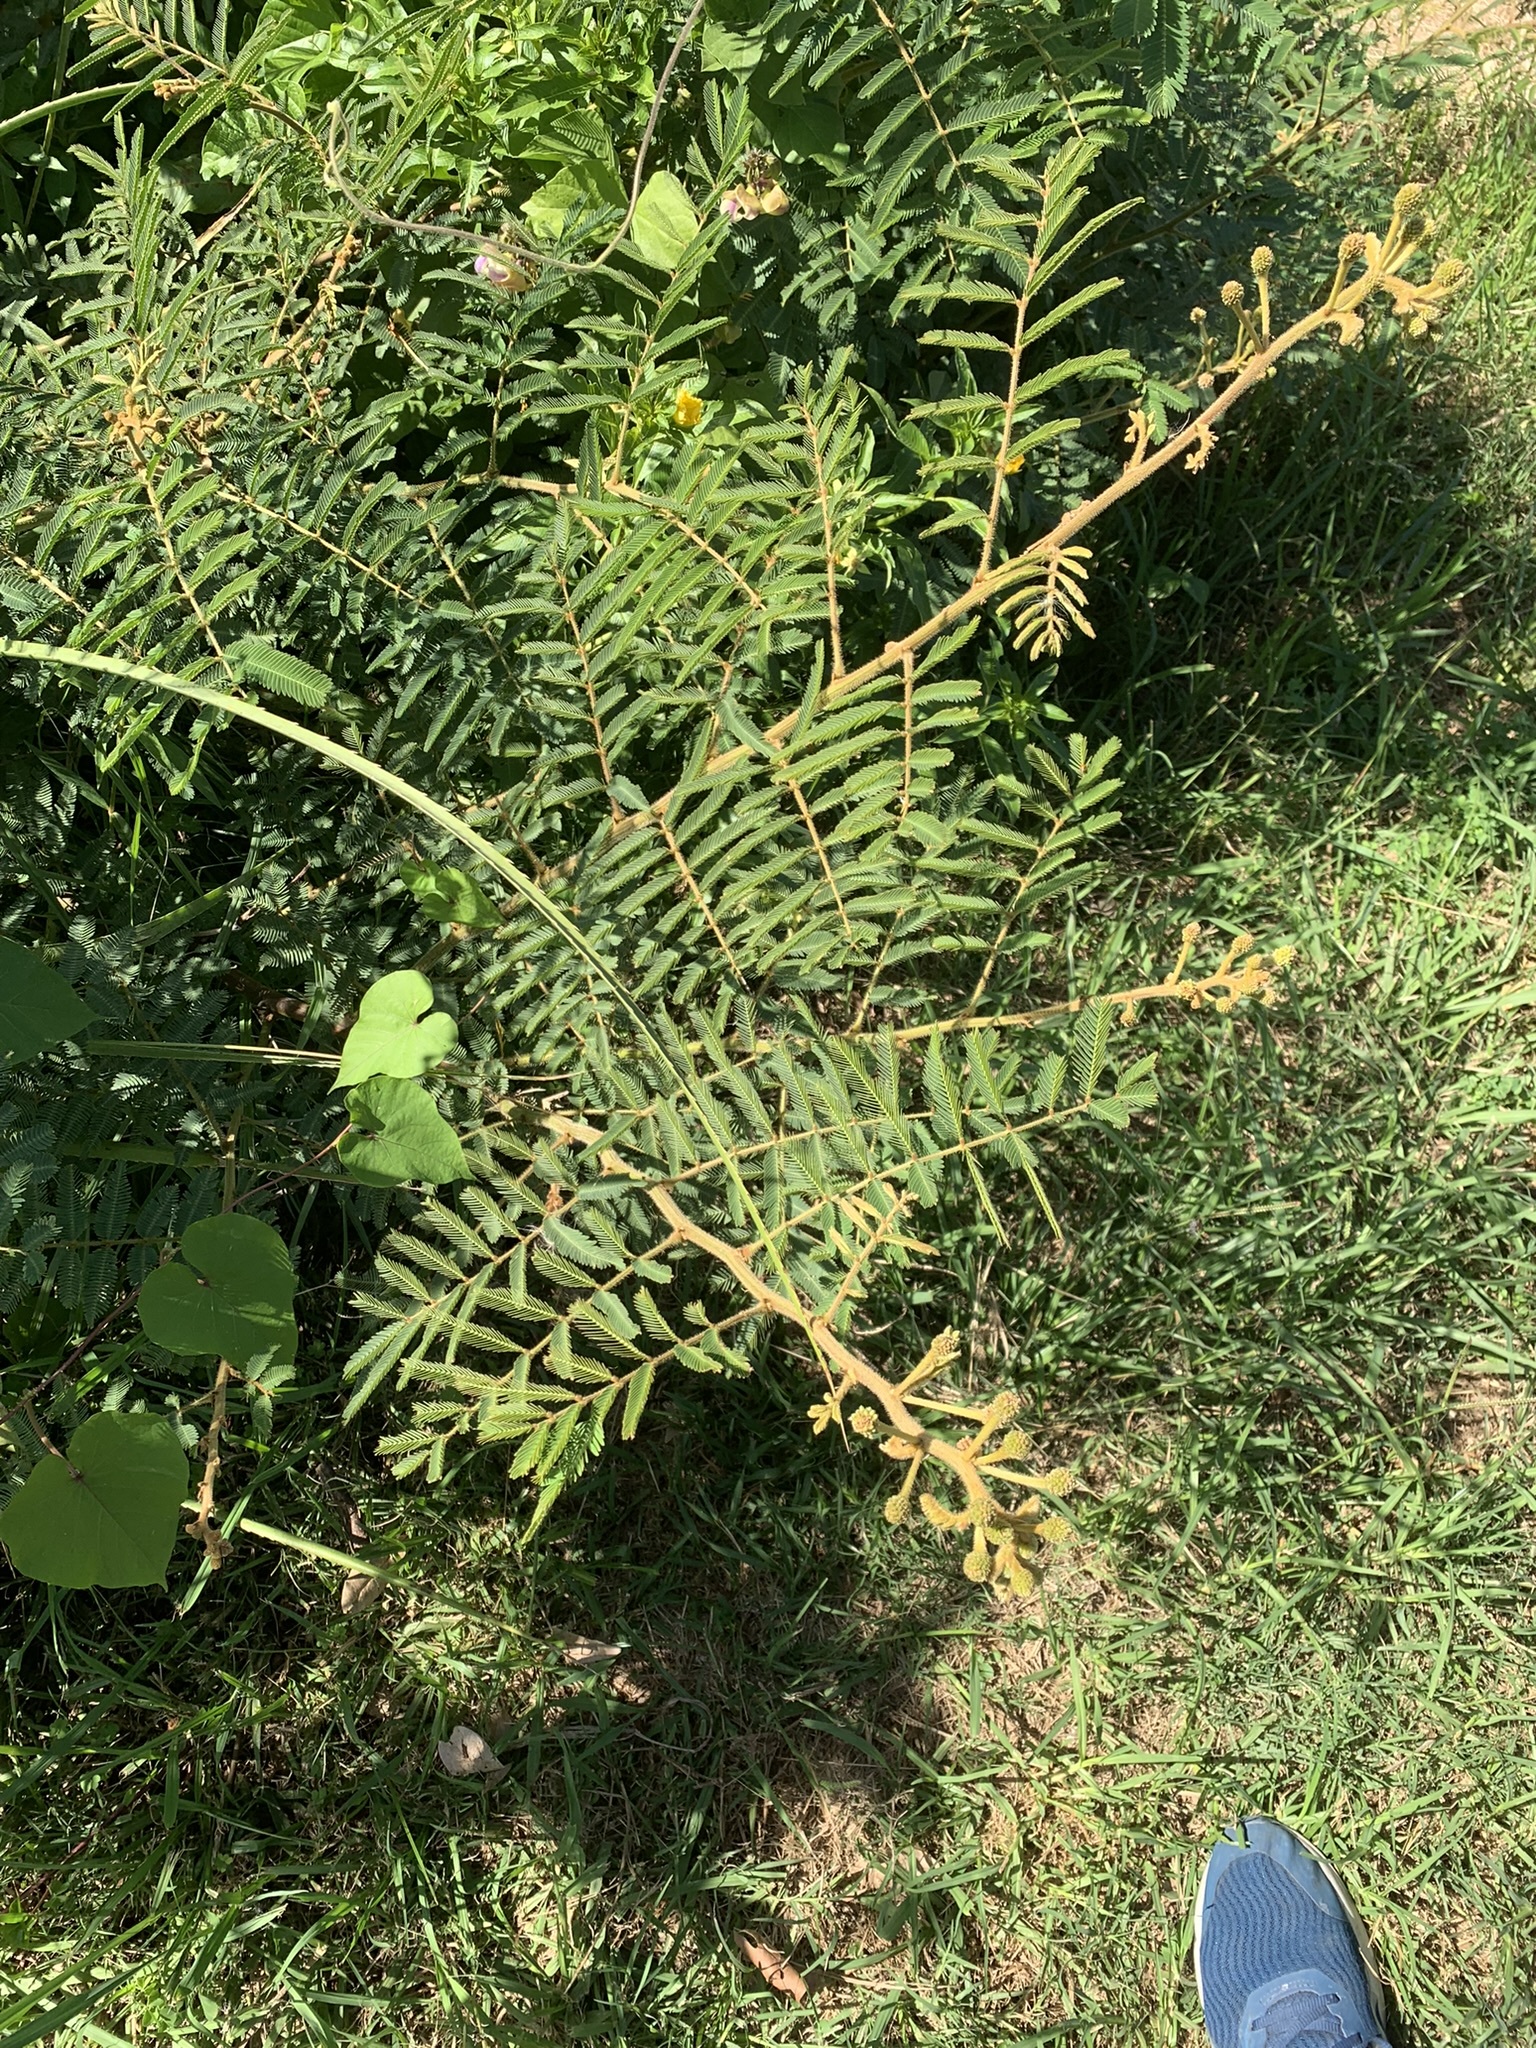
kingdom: Plantae
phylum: Tracheophyta
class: Magnoliopsida
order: Fabales
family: Fabaceae
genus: Mimosa
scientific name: Mimosa pigra
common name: Black mimosa
